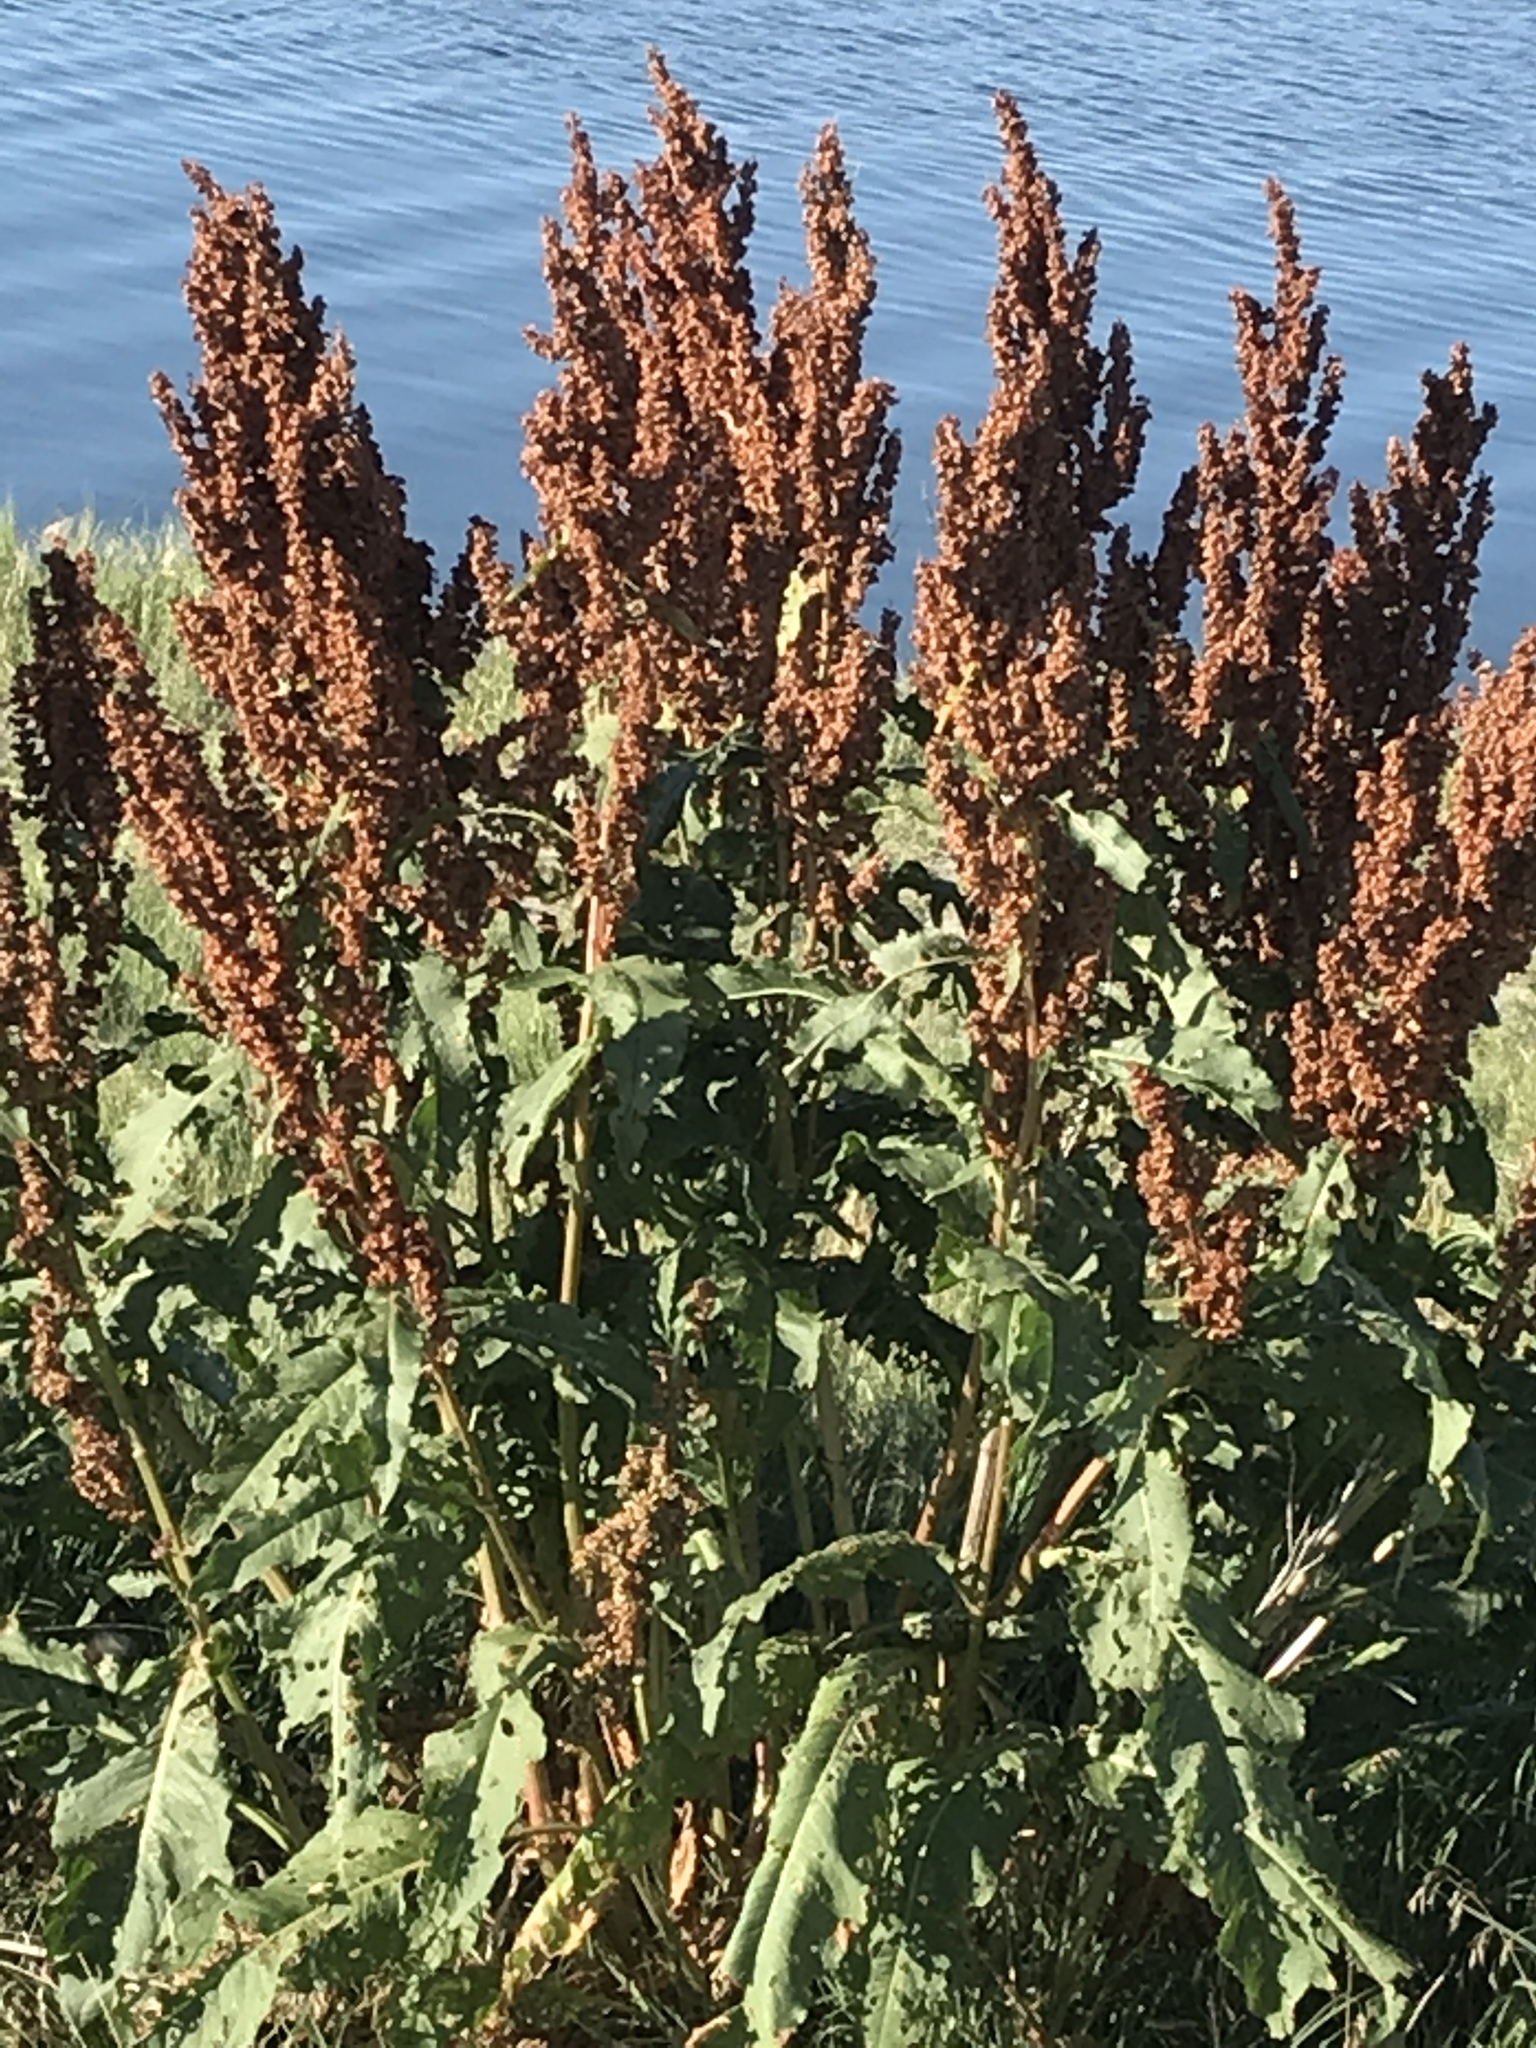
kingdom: Plantae
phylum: Tracheophyta
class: Magnoliopsida
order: Caryophyllales
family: Polygonaceae
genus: Rumex
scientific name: Rumex crispus
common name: Curled dock
